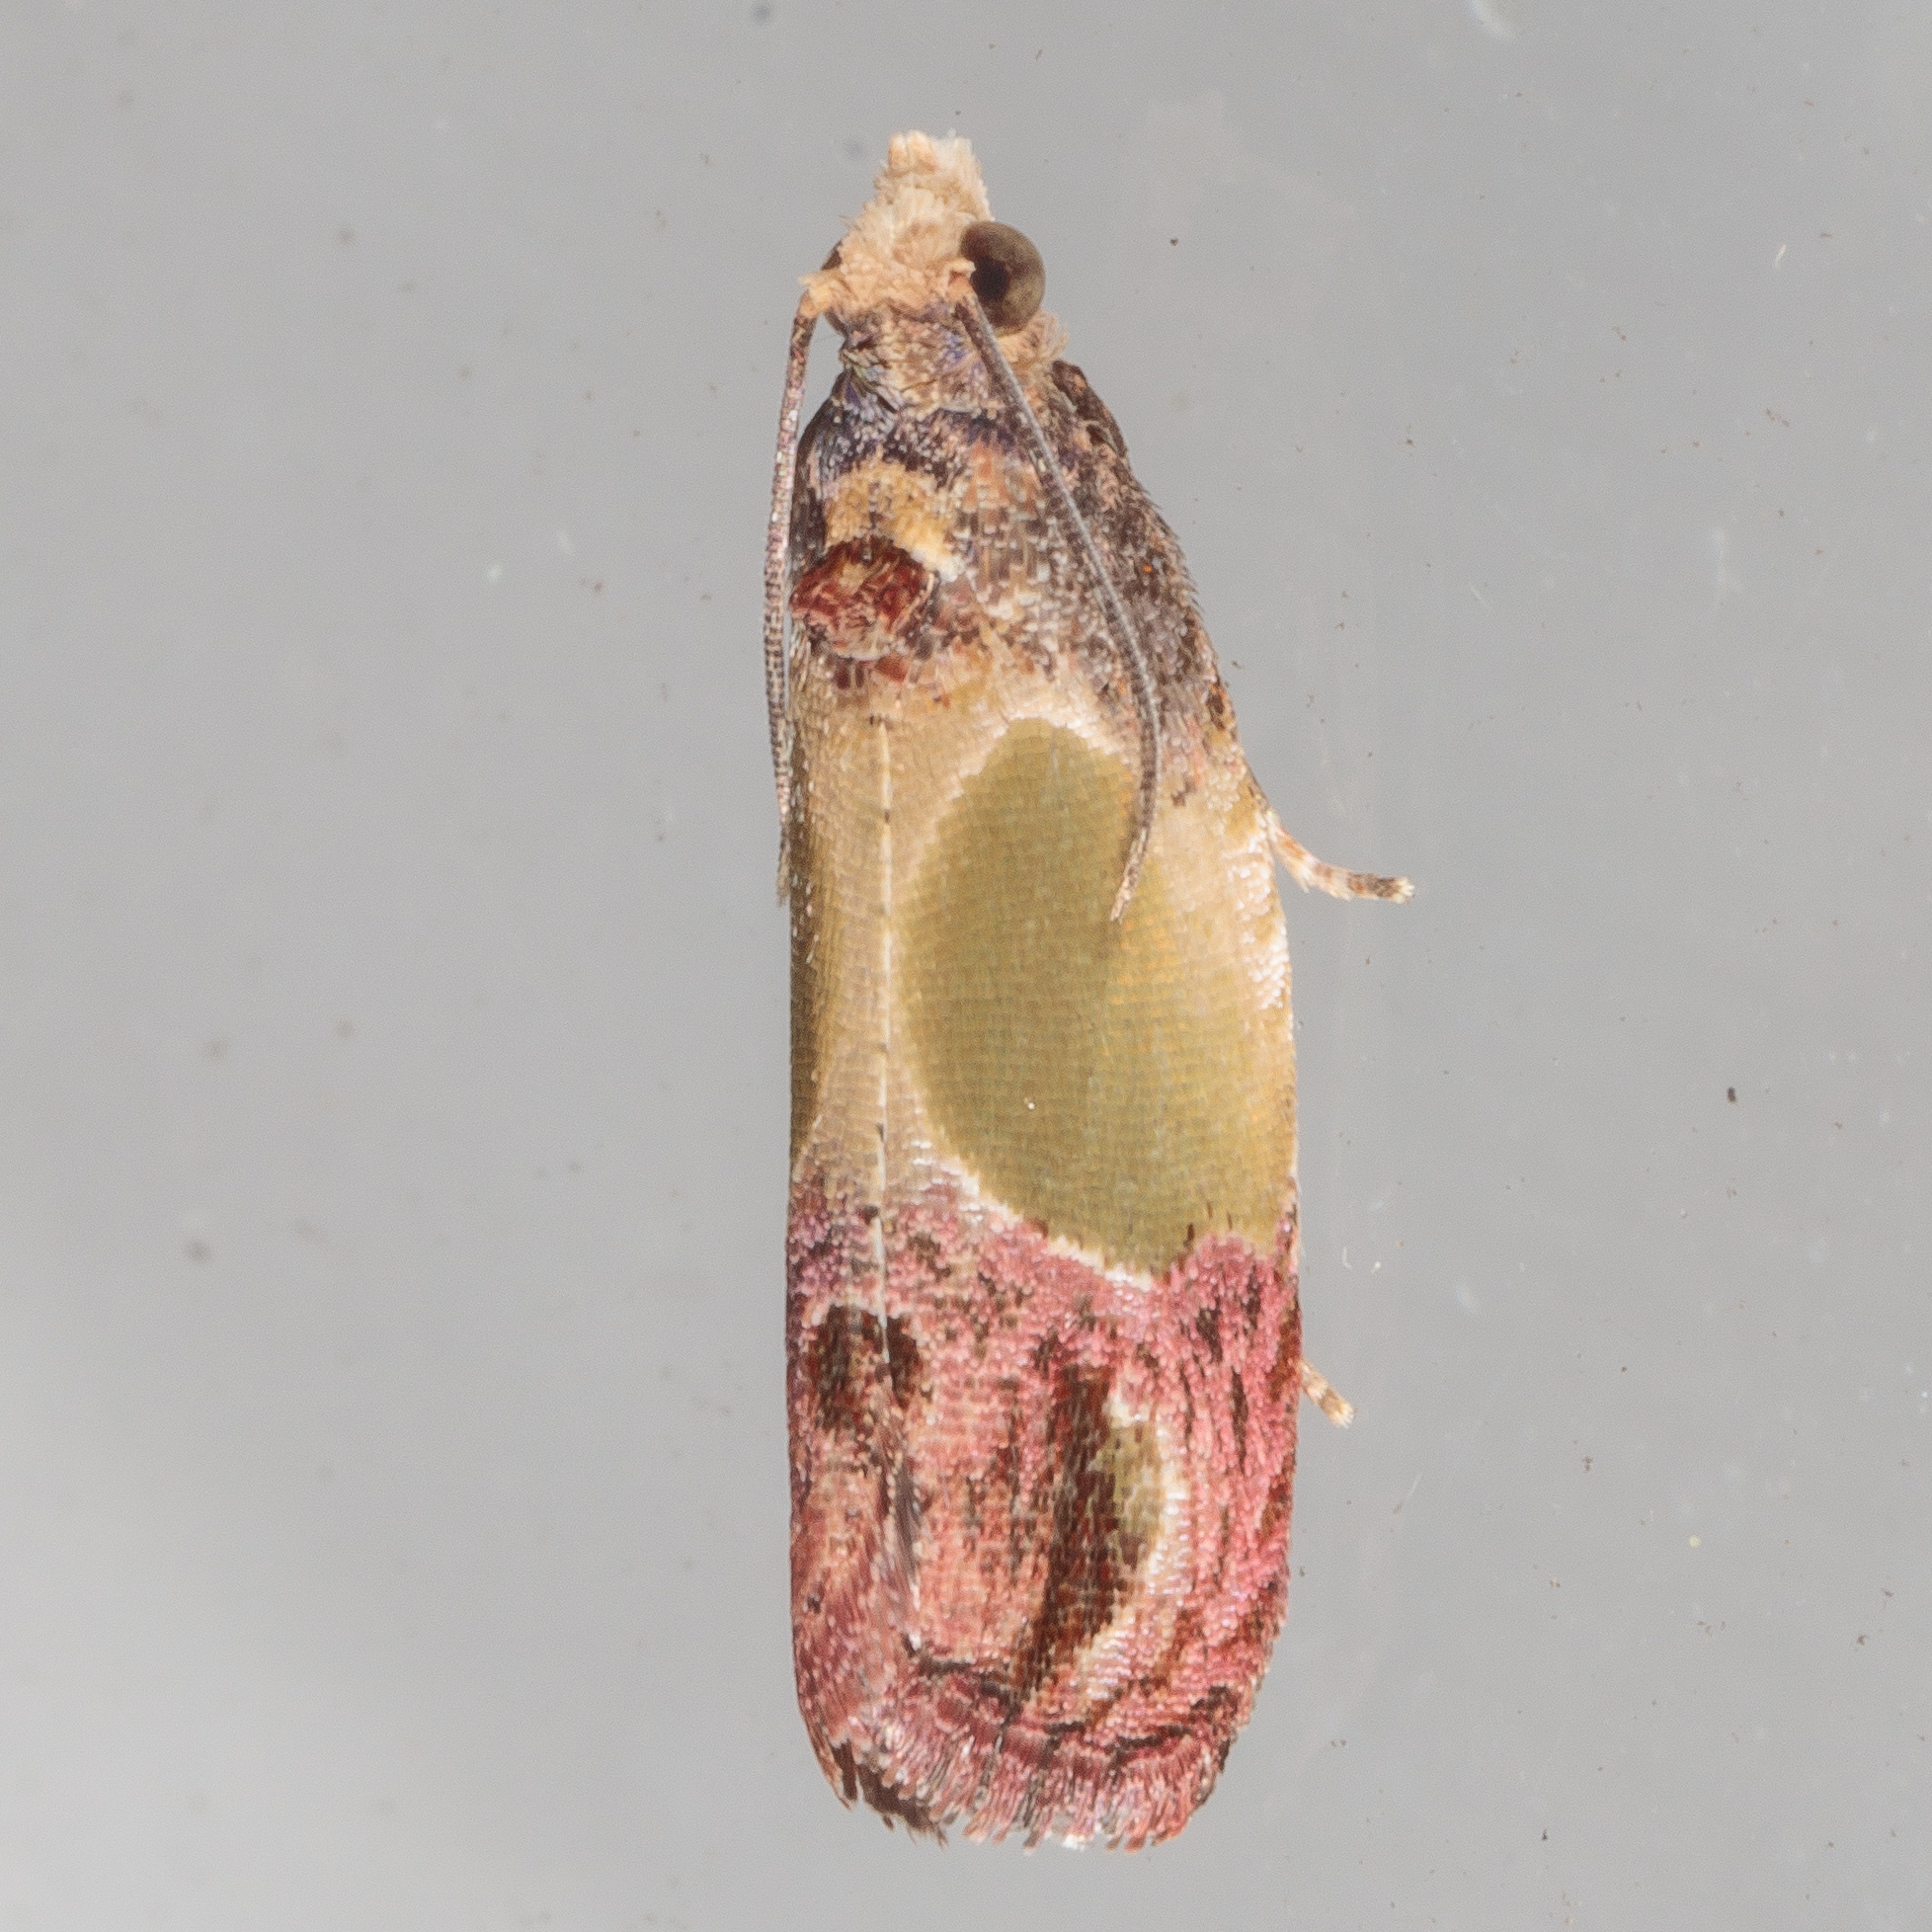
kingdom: Animalia
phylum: Arthropoda
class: Insecta
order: Lepidoptera
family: Tortricidae
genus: Eumarozia
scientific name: Eumarozia malachitana
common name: Sculptured moth
